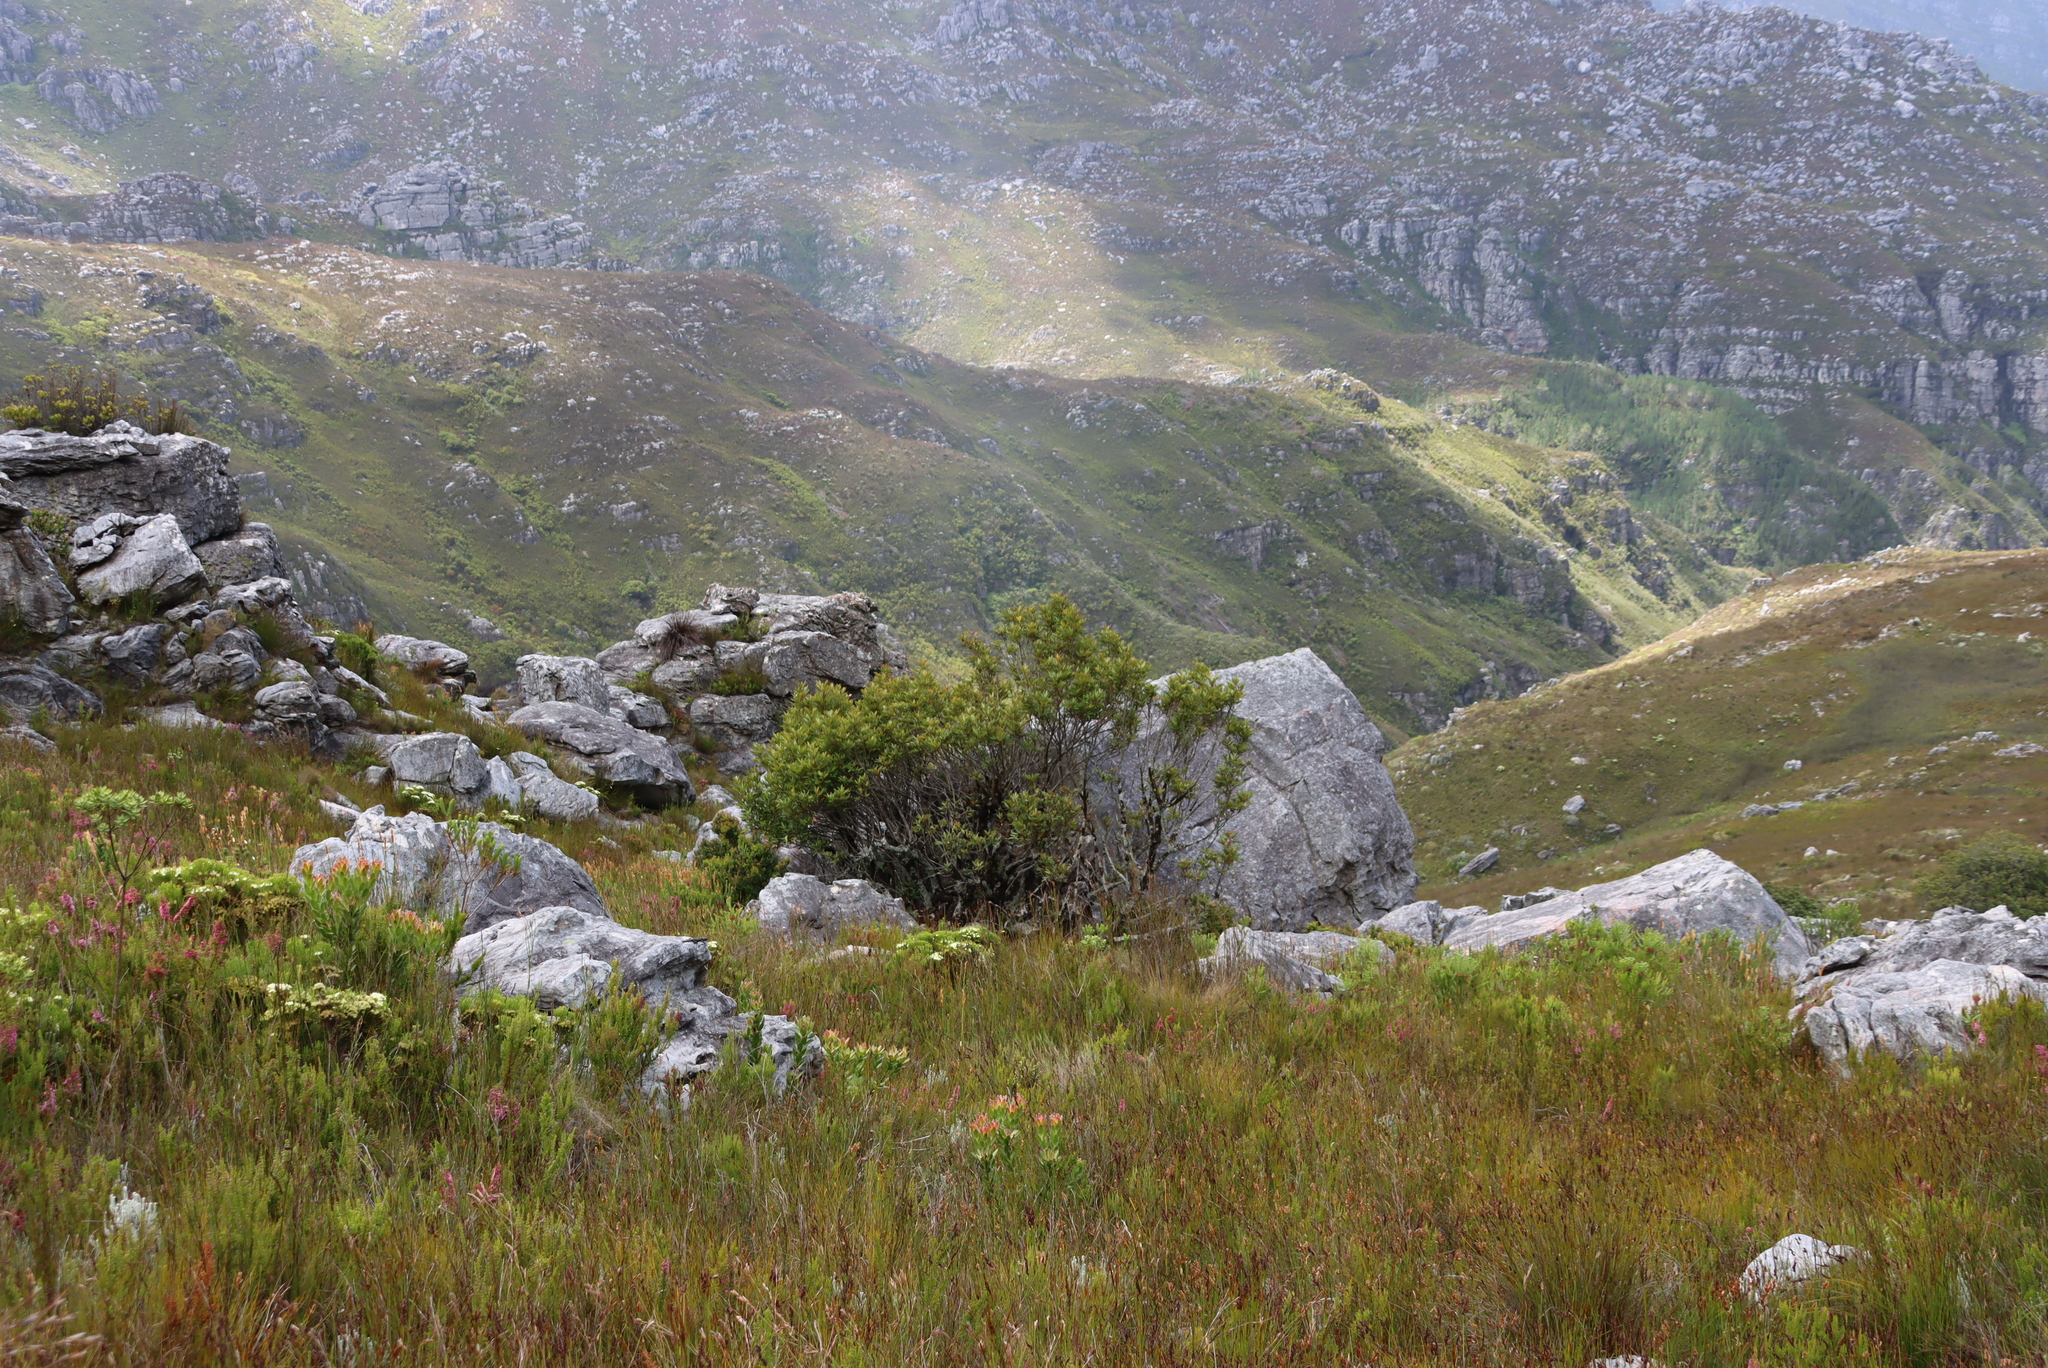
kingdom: Plantae
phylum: Tracheophyta
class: Magnoliopsida
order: Oxalidales
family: Cunoniaceae
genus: Cunonia
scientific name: Cunonia capensis
